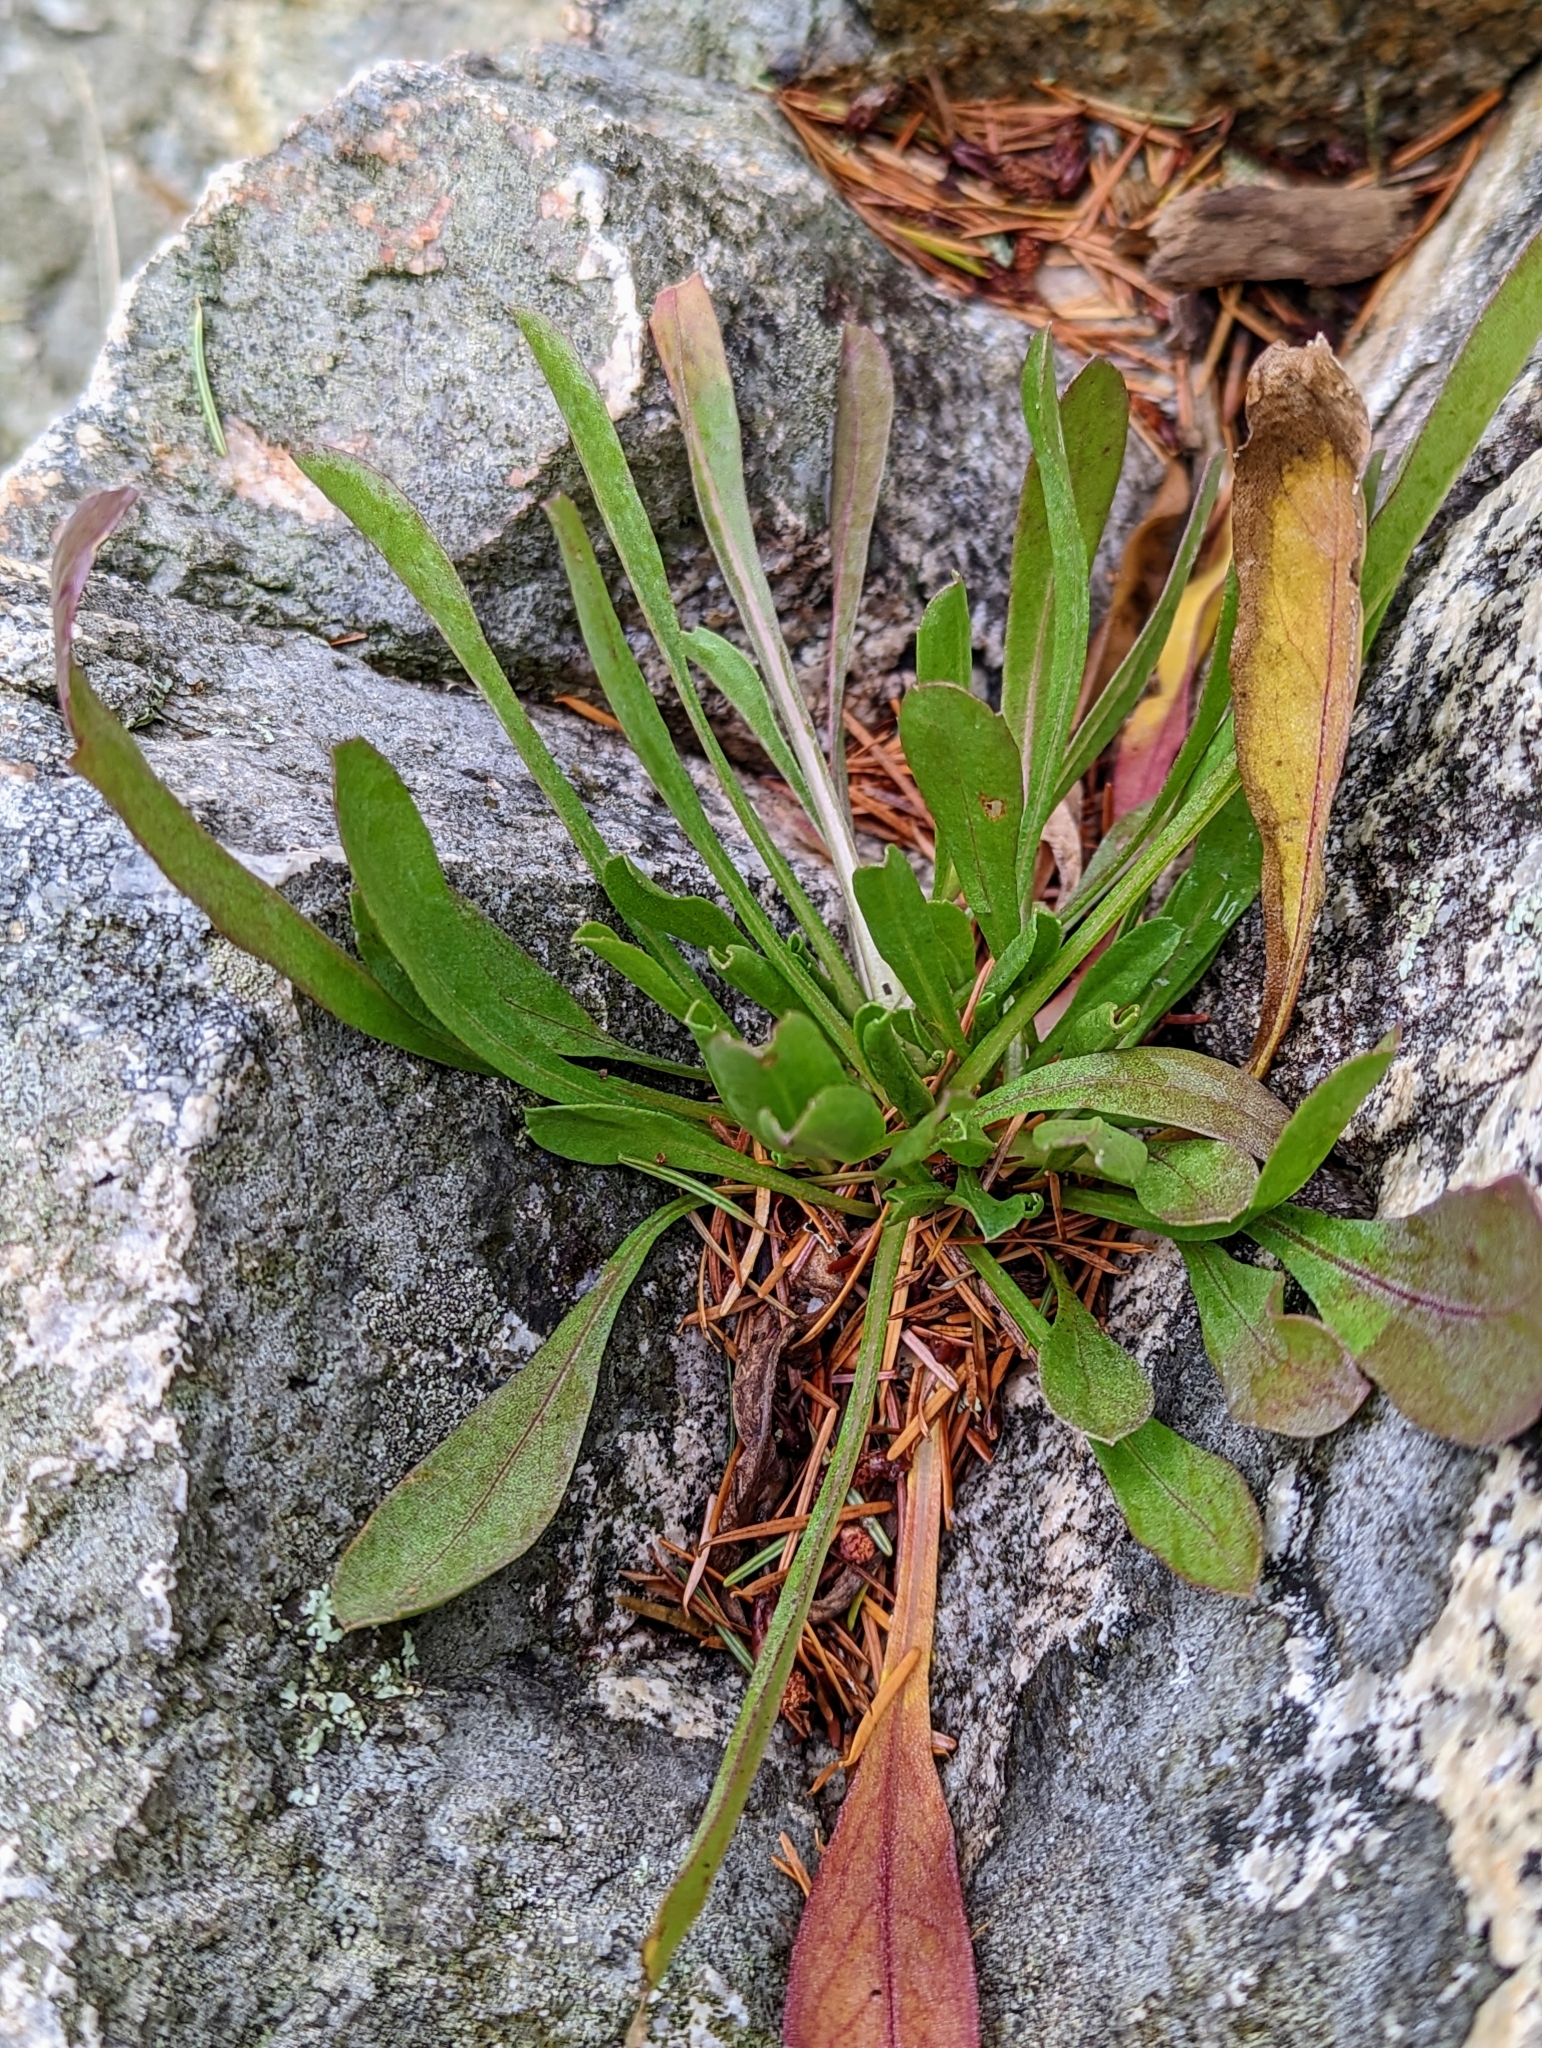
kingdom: Plantae
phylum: Tracheophyta
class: Magnoliopsida
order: Asterales
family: Asteraceae
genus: Grindelia
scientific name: Grindelia hirsutula
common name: Hairy gumweed
